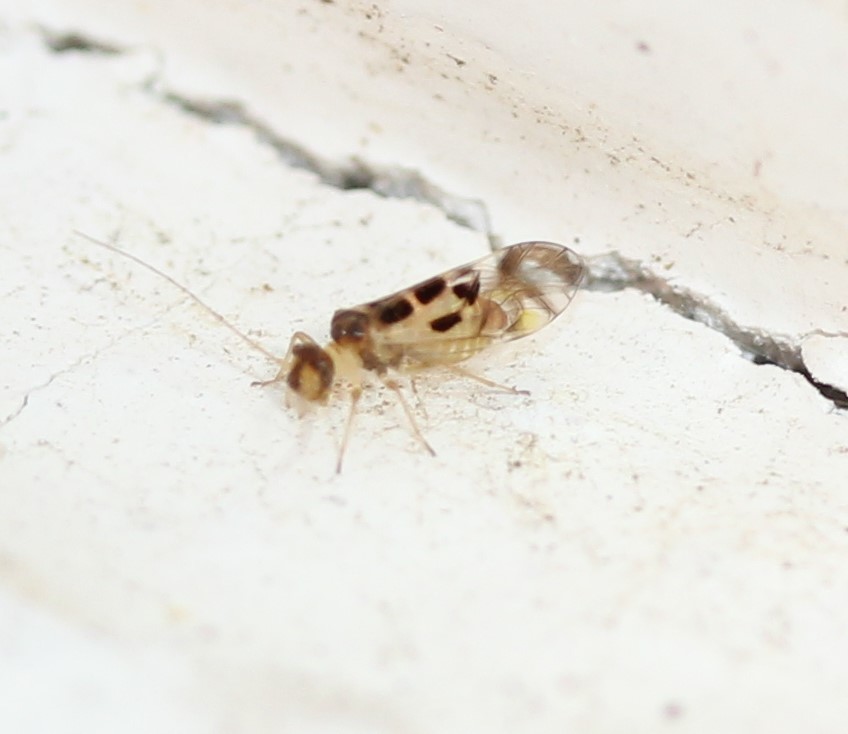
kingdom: Animalia
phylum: Arthropoda
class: Insecta
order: Psocodea
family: Stenopsocidae
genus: Graphopsocus
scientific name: Graphopsocus cruciatus
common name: Lizard bark louse
